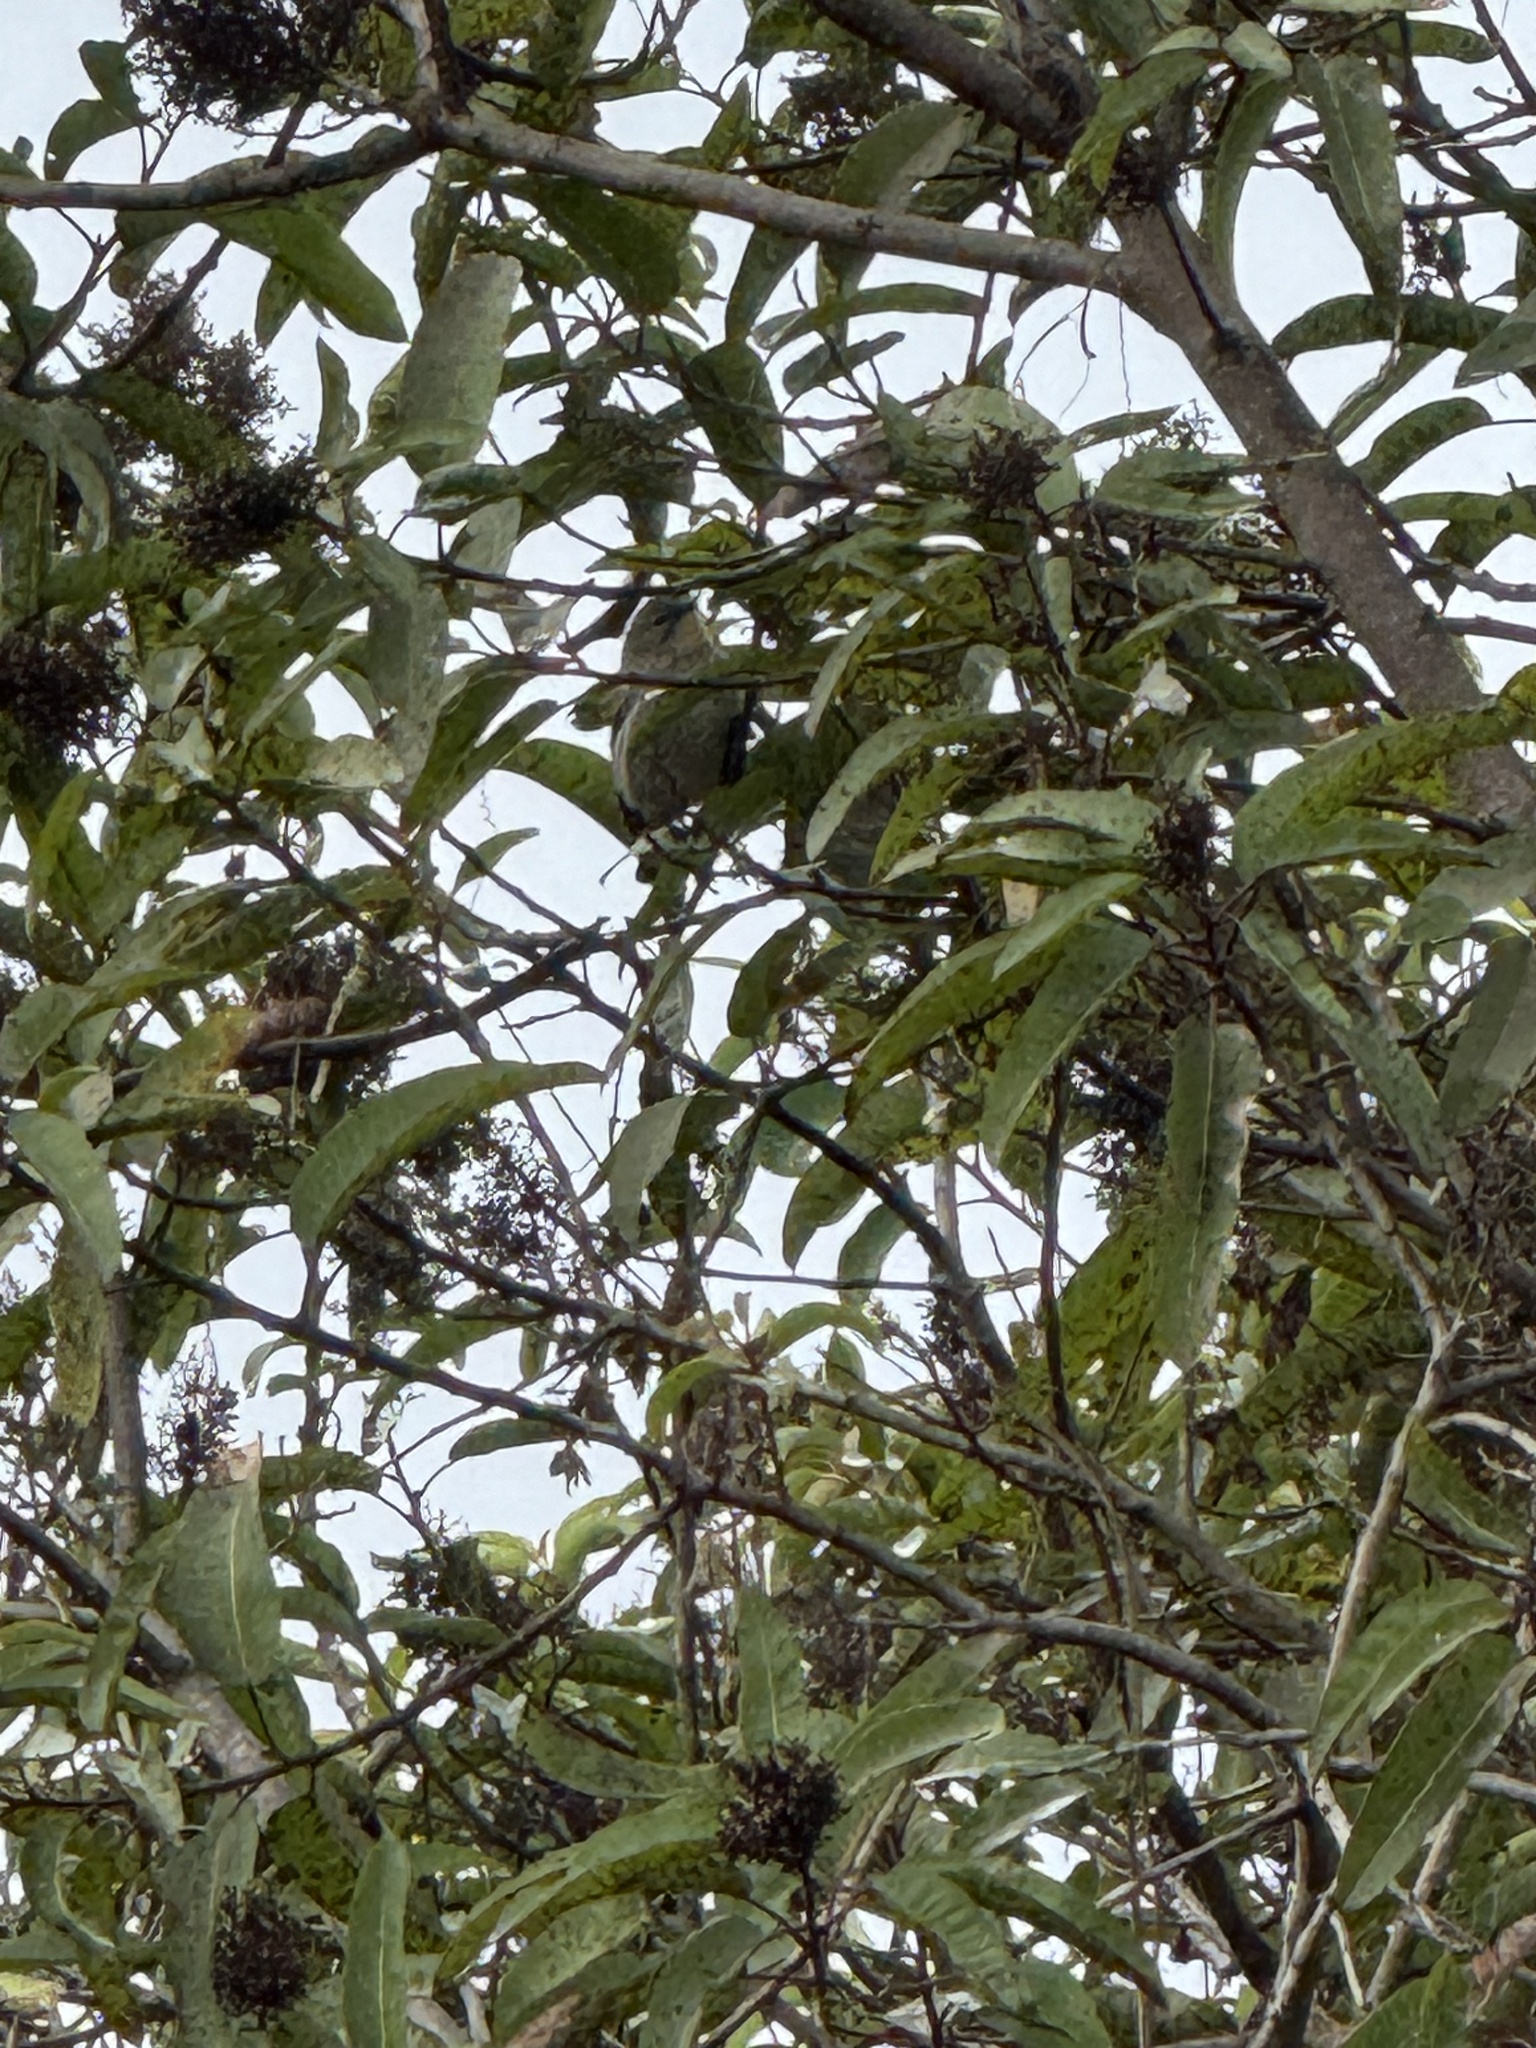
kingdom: Animalia
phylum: Chordata
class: Aves
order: Passeriformes
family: Parulidae
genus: Setophaga
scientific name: Setophaga auduboni
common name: Audubon's warbler
